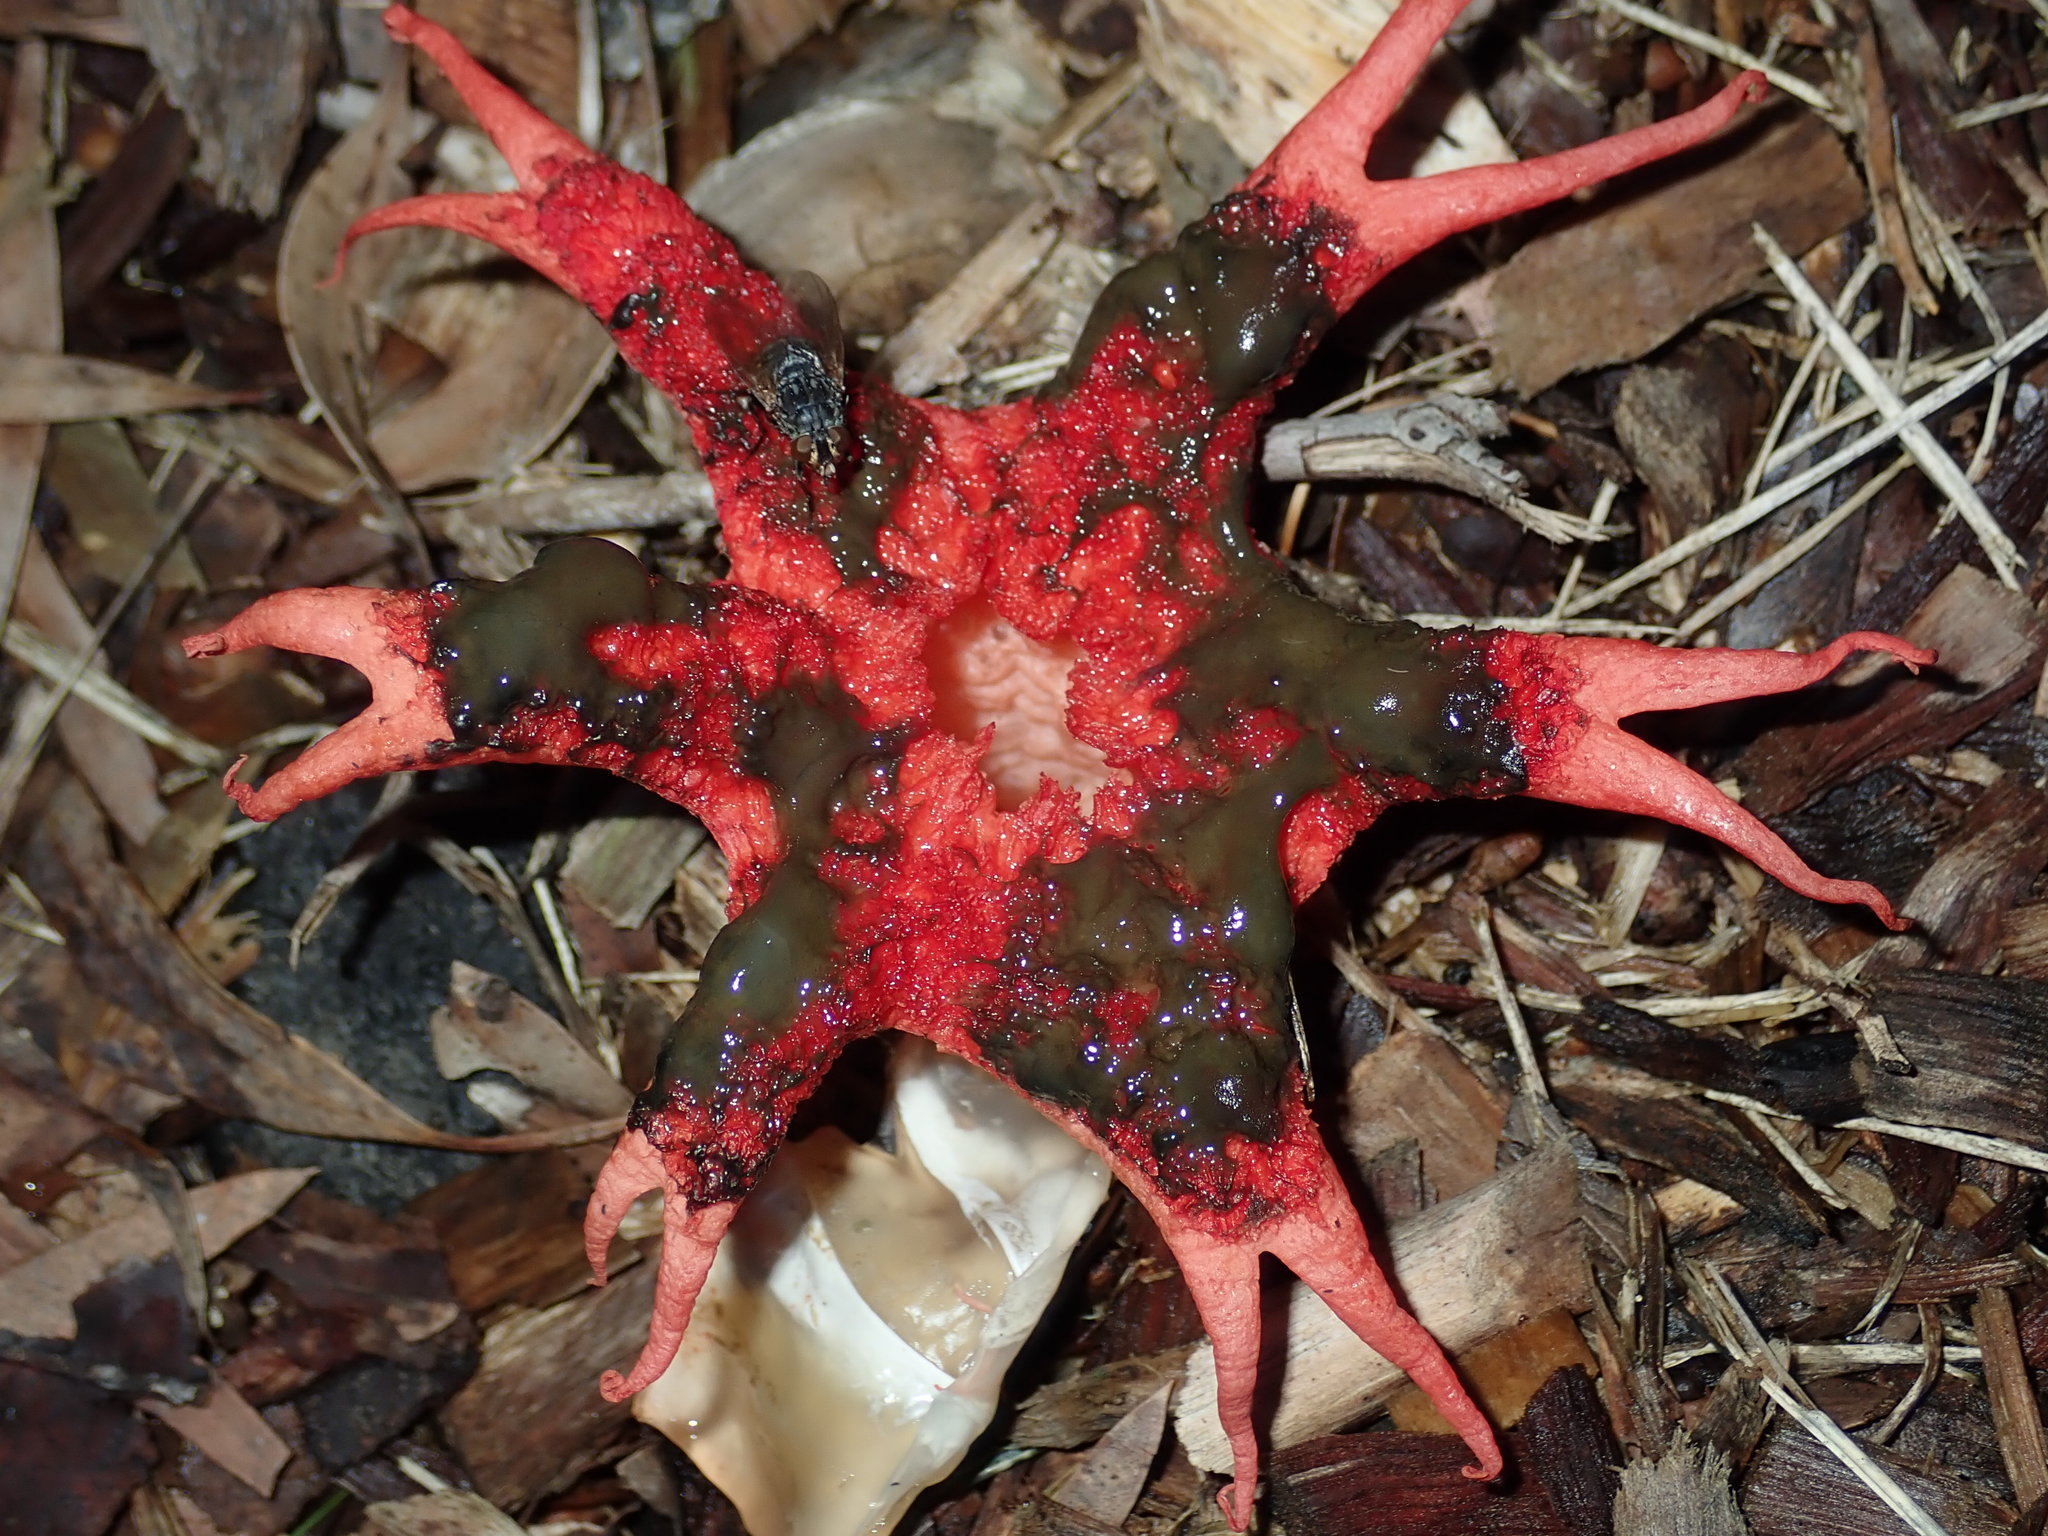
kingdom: Fungi
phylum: Basidiomycota
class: Agaricomycetes
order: Phallales
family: Phallaceae
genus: Aseroe
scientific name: Aseroe rubra
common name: Starfish fungus
